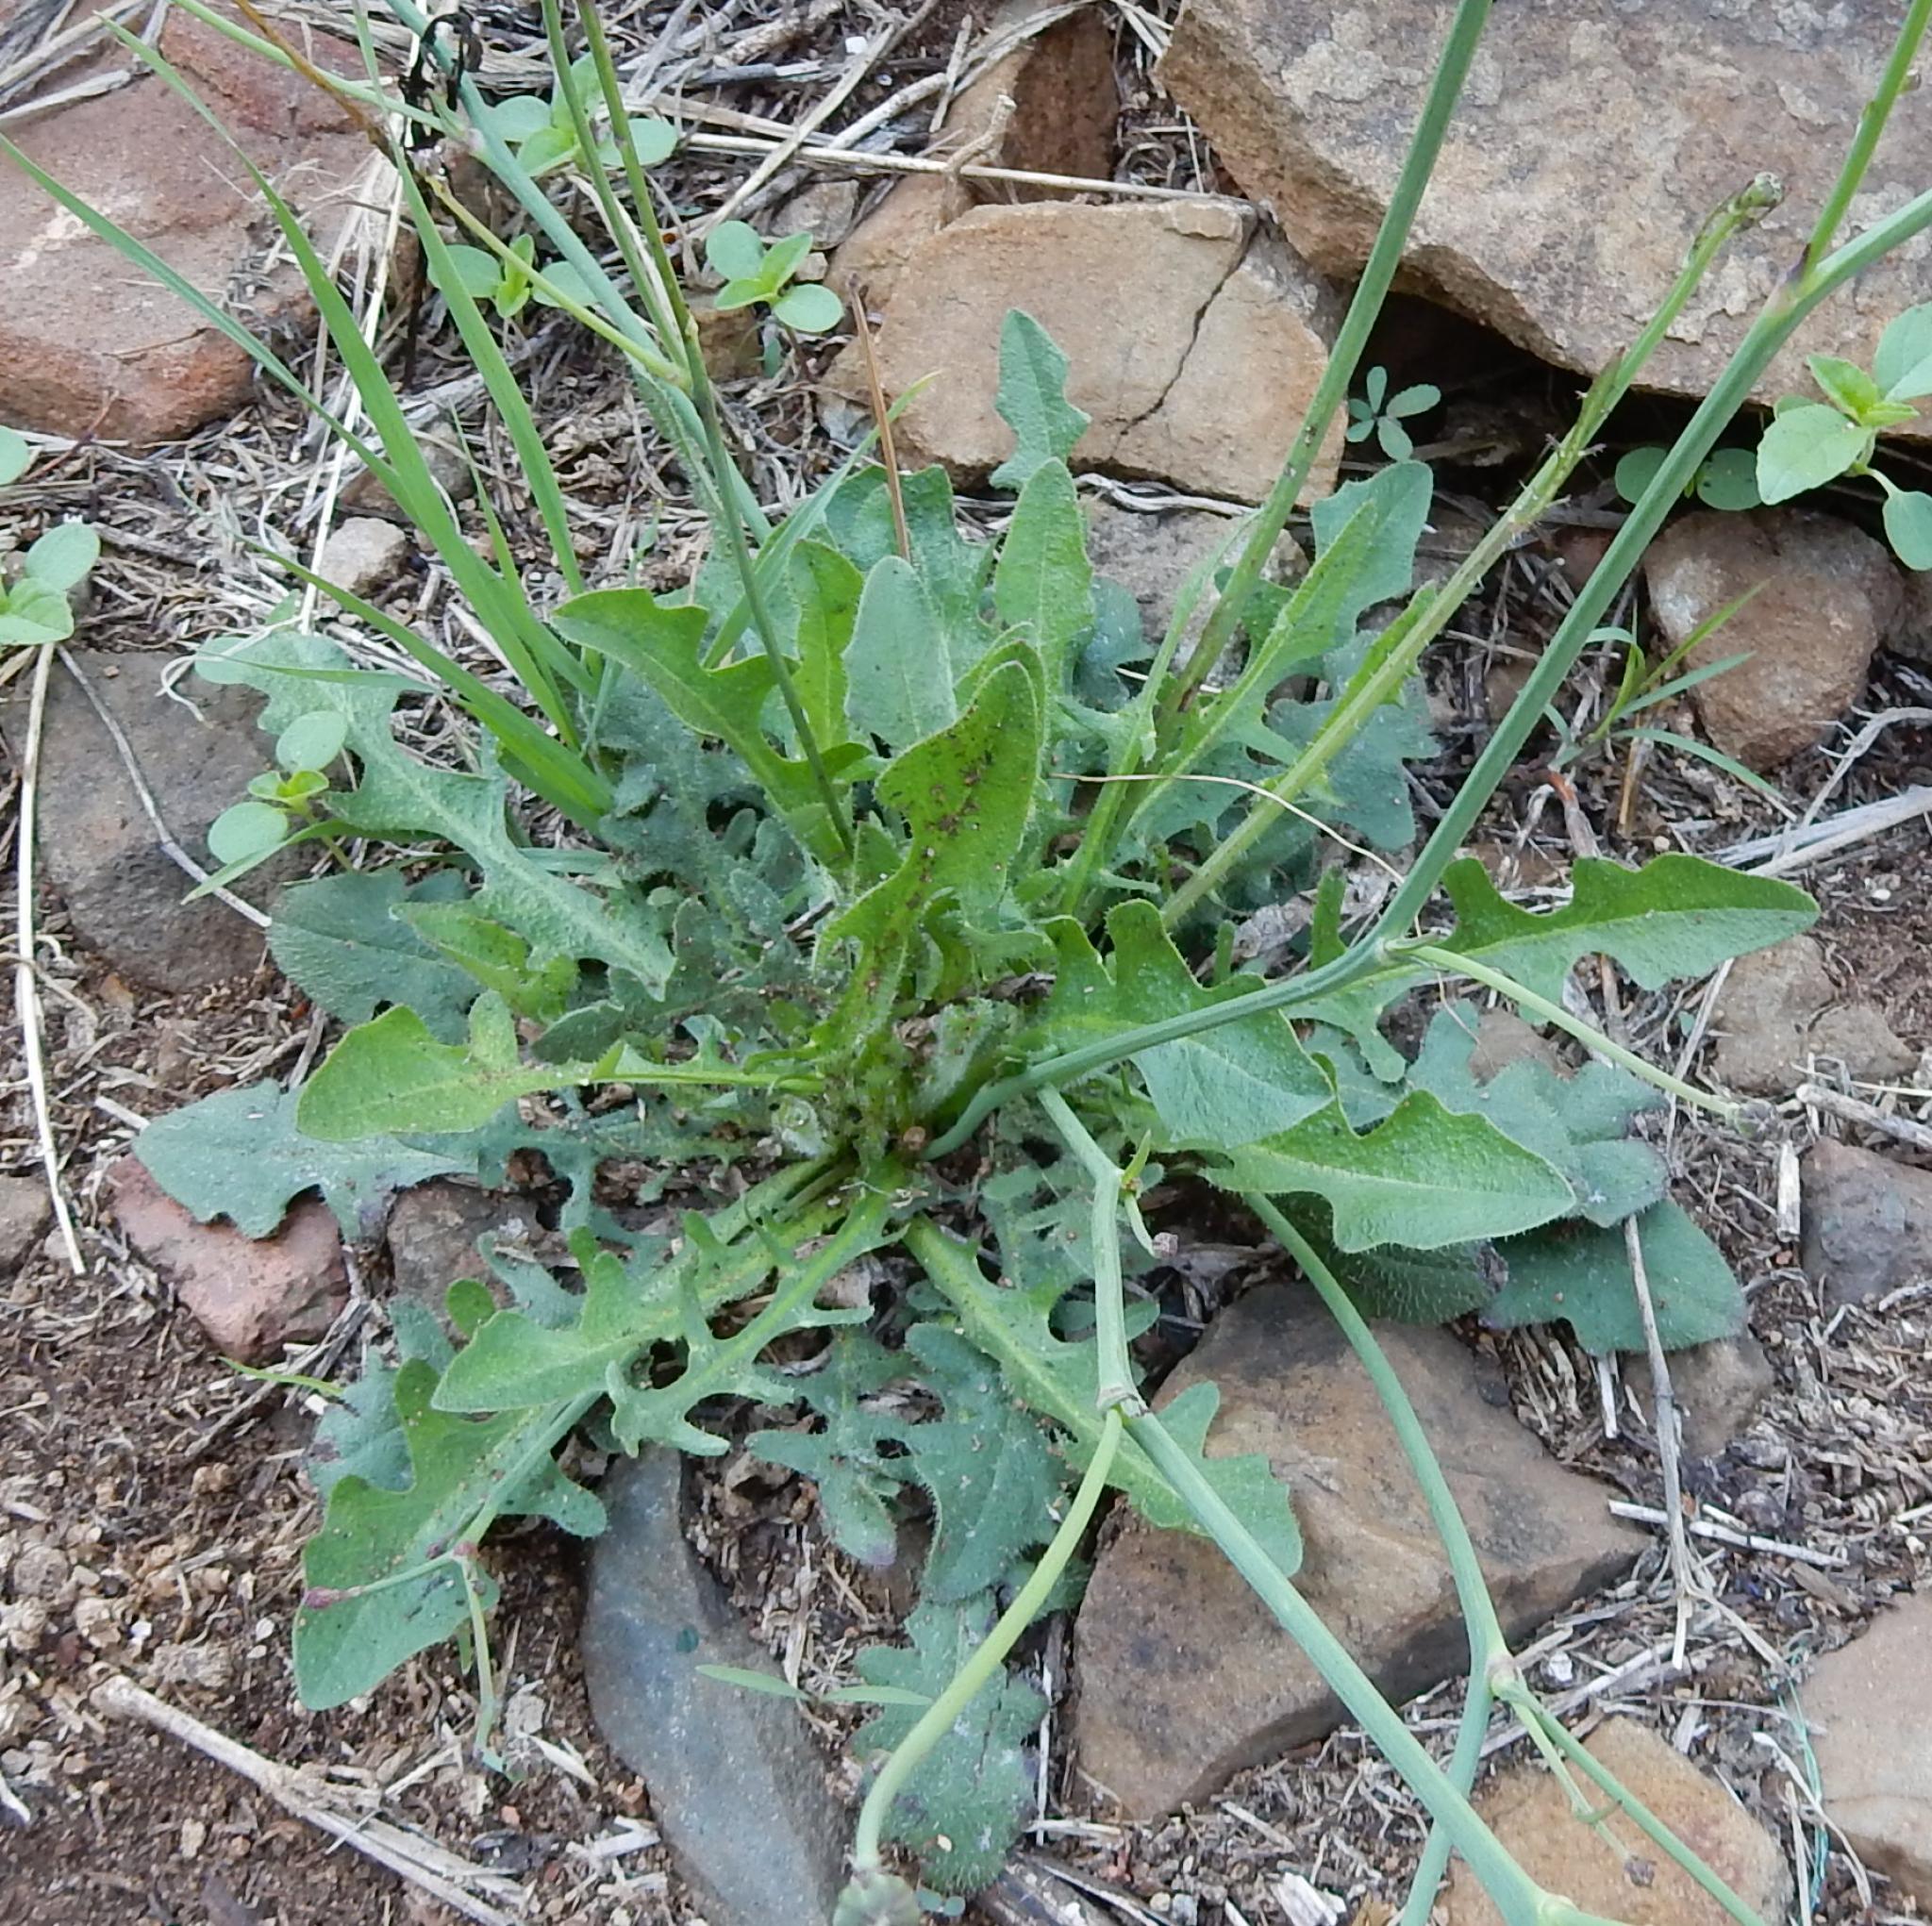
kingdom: Plantae
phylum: Tracheophyta
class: Magnoliopsida
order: Asterales
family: Asteraceae
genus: Hypochaeris
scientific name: Hypochaeris radicata
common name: Flatweed
